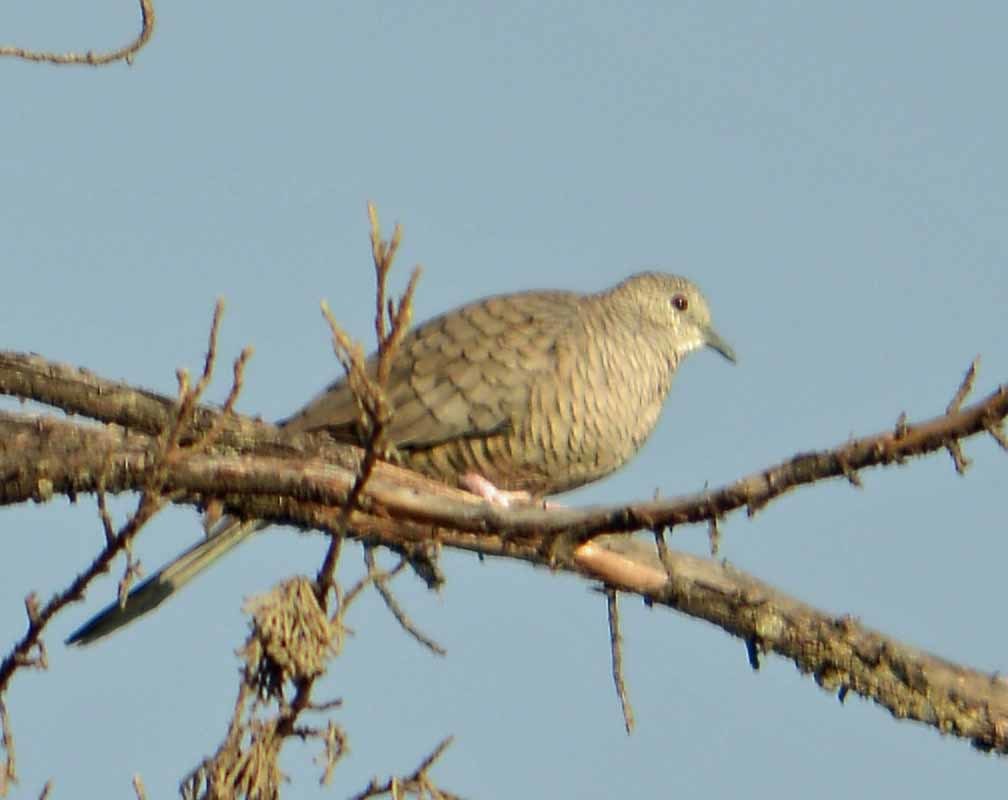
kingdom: Animalia
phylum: Chordata
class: Aves
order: Columbiformes
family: Columbidae
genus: Columbina
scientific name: Columbina inca
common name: Inca dove
